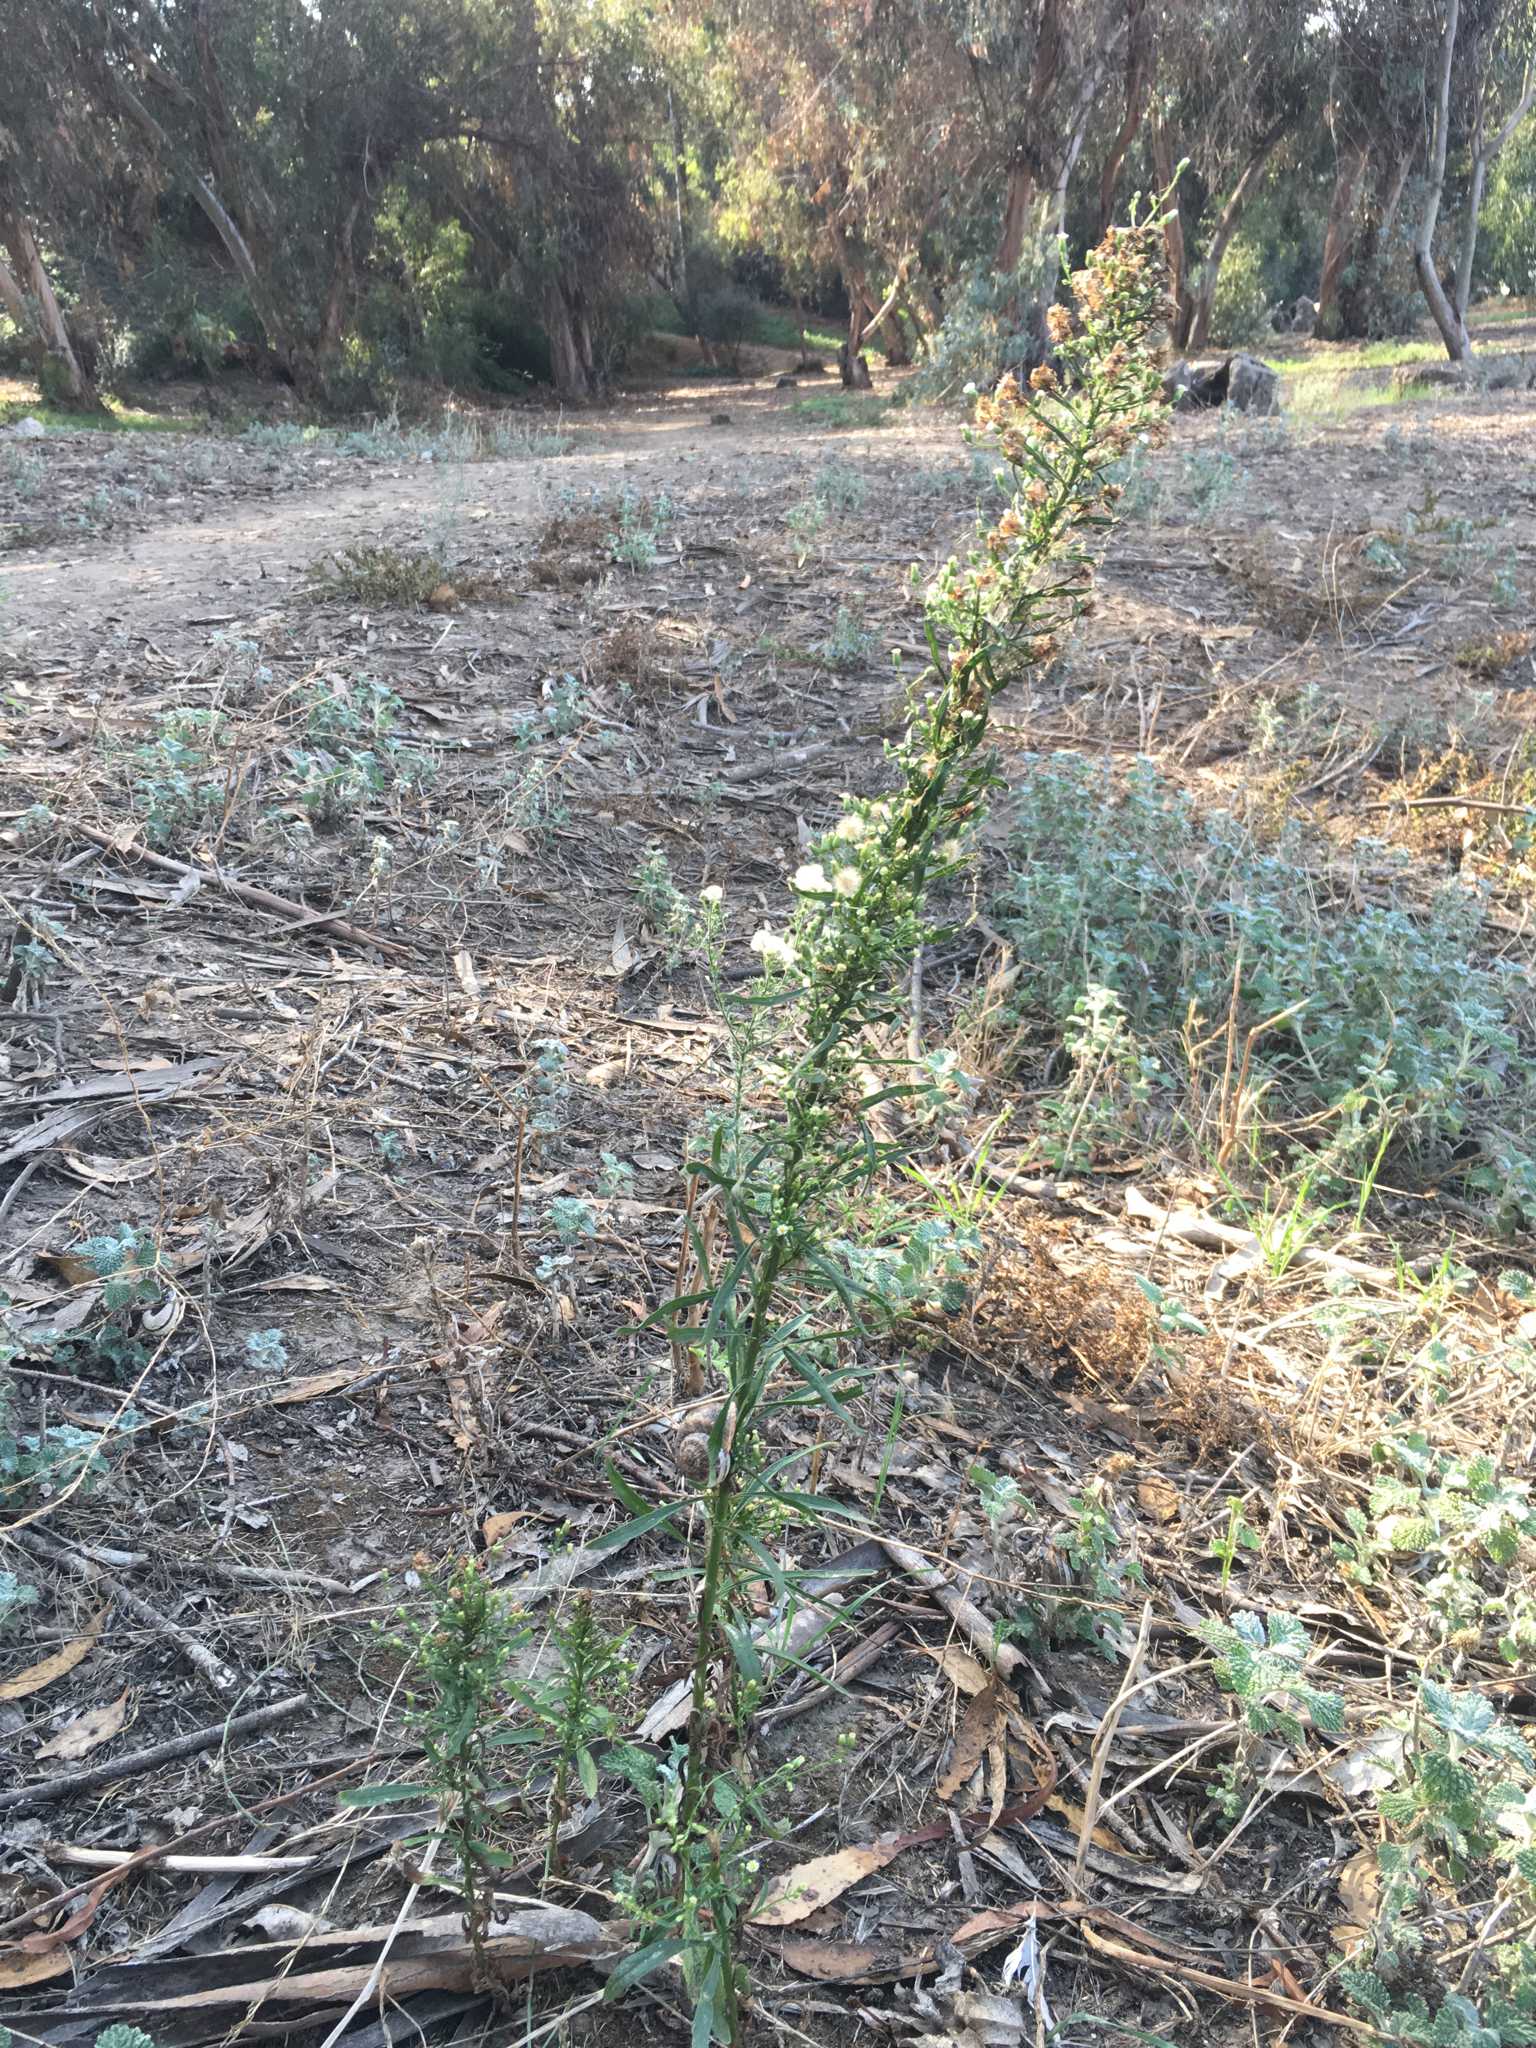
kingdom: Plantae
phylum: Tracheophyta
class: Magnoliopsida
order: Asterales
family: Asteraceae
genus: Erigeron
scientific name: Erigeron canadensis
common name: Canadian fleabane
